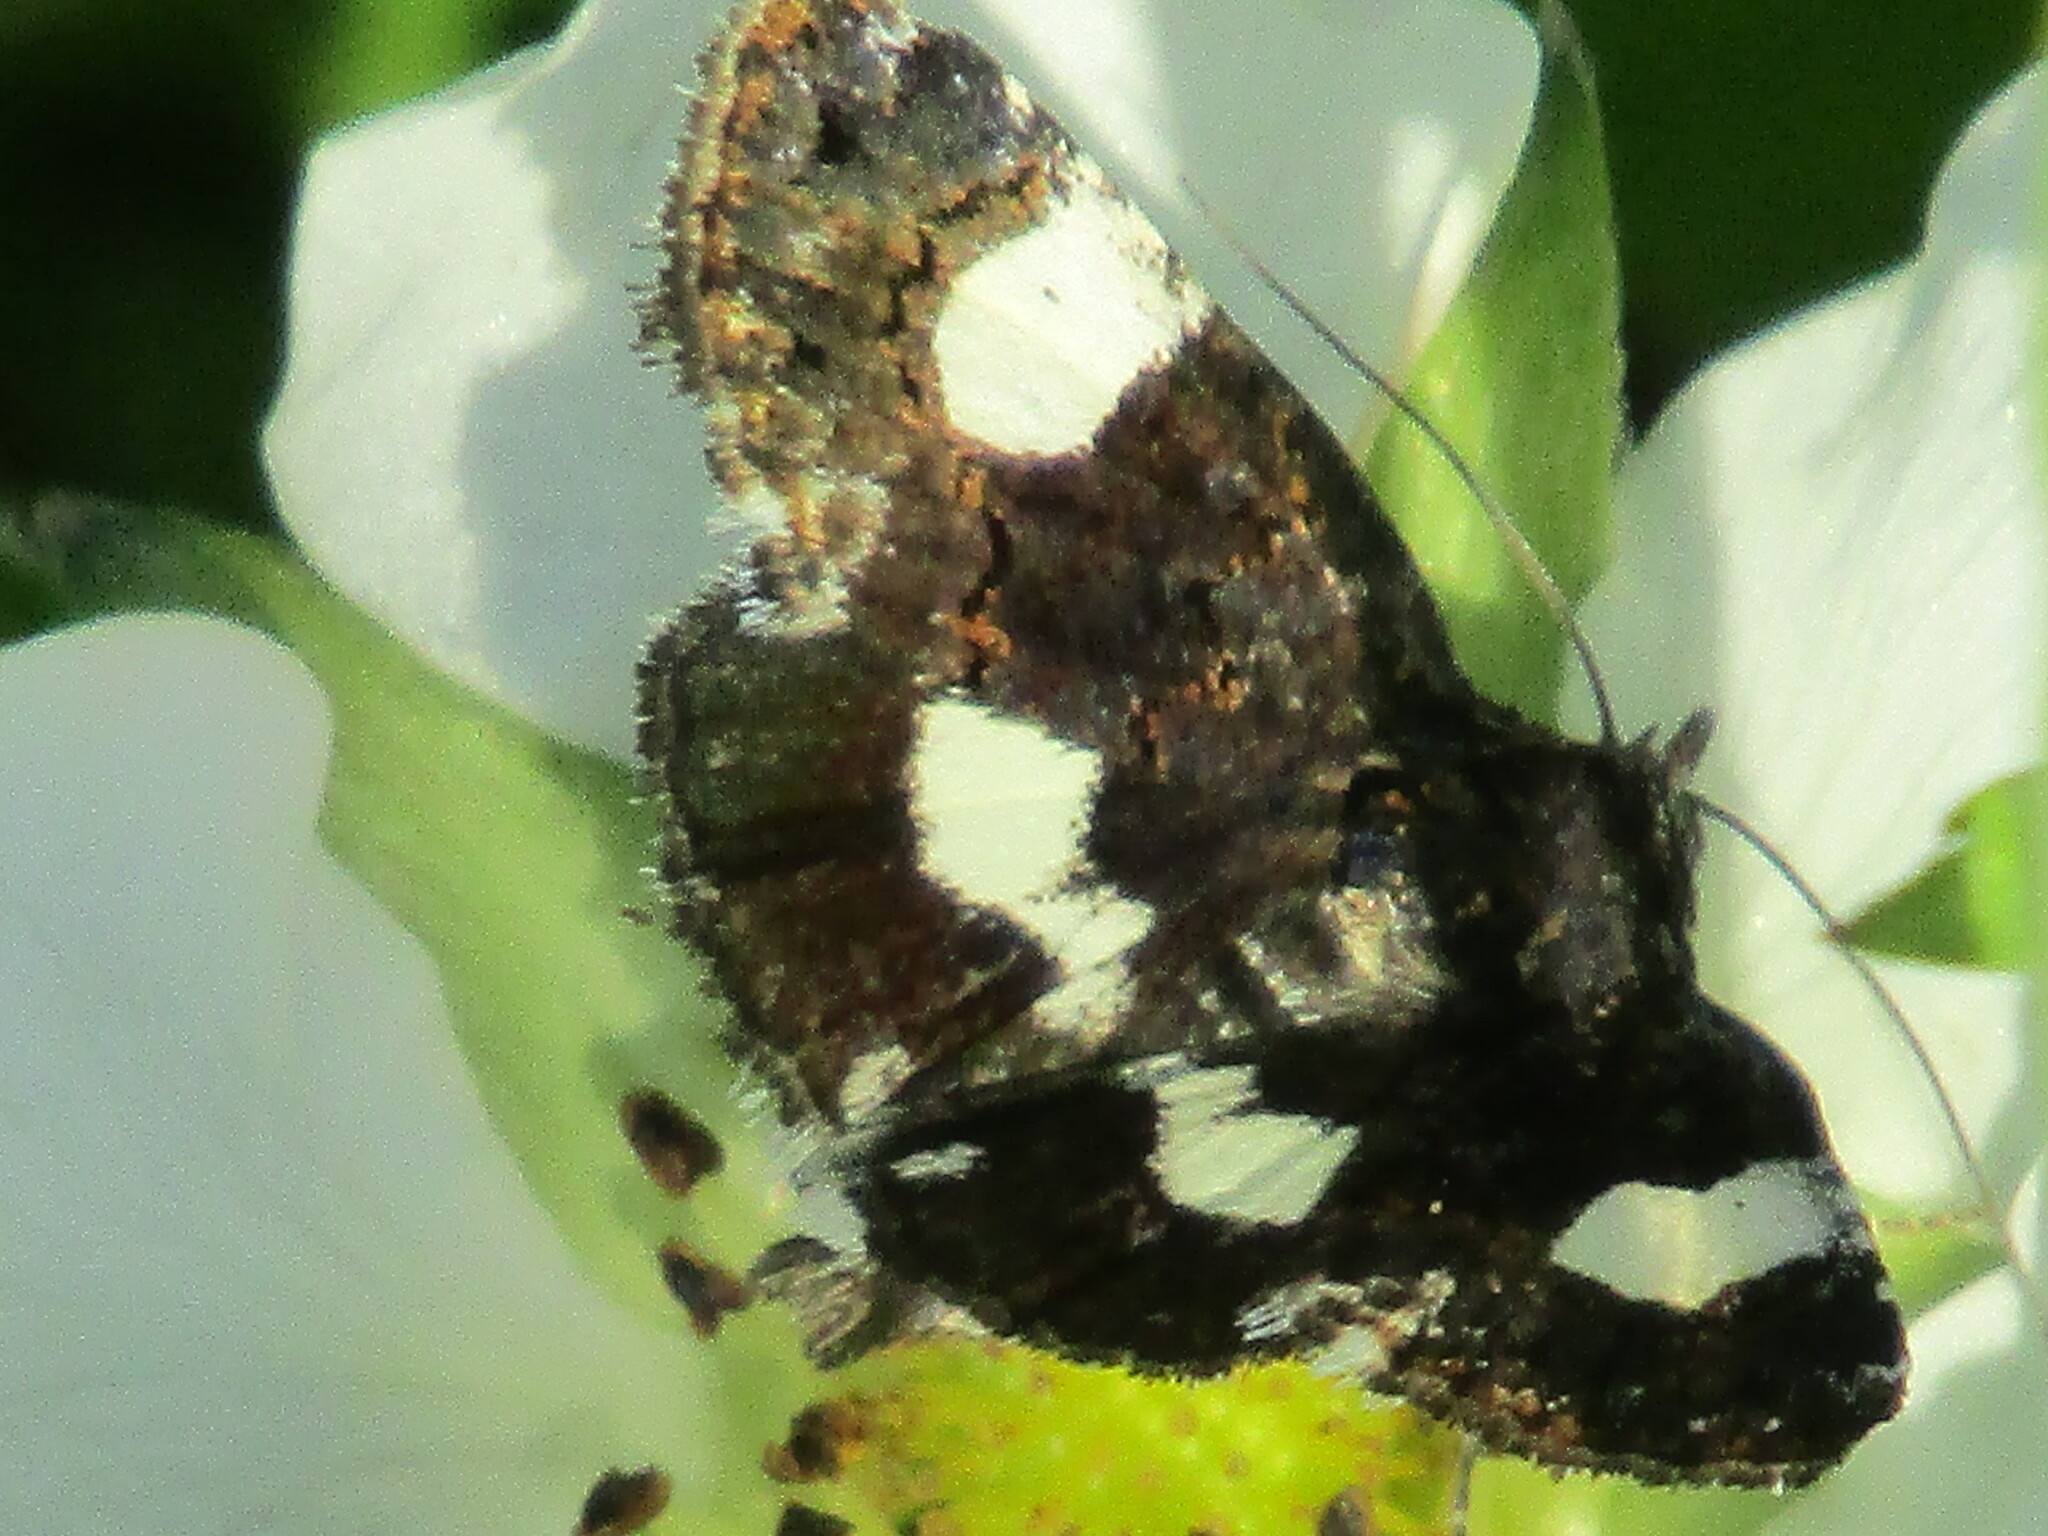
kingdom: Animalia
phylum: Arthropoda
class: Insecta
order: Lepidoptera
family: Erebidae
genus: Tyta
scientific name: Tyta luctuosa
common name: Four-spotted
